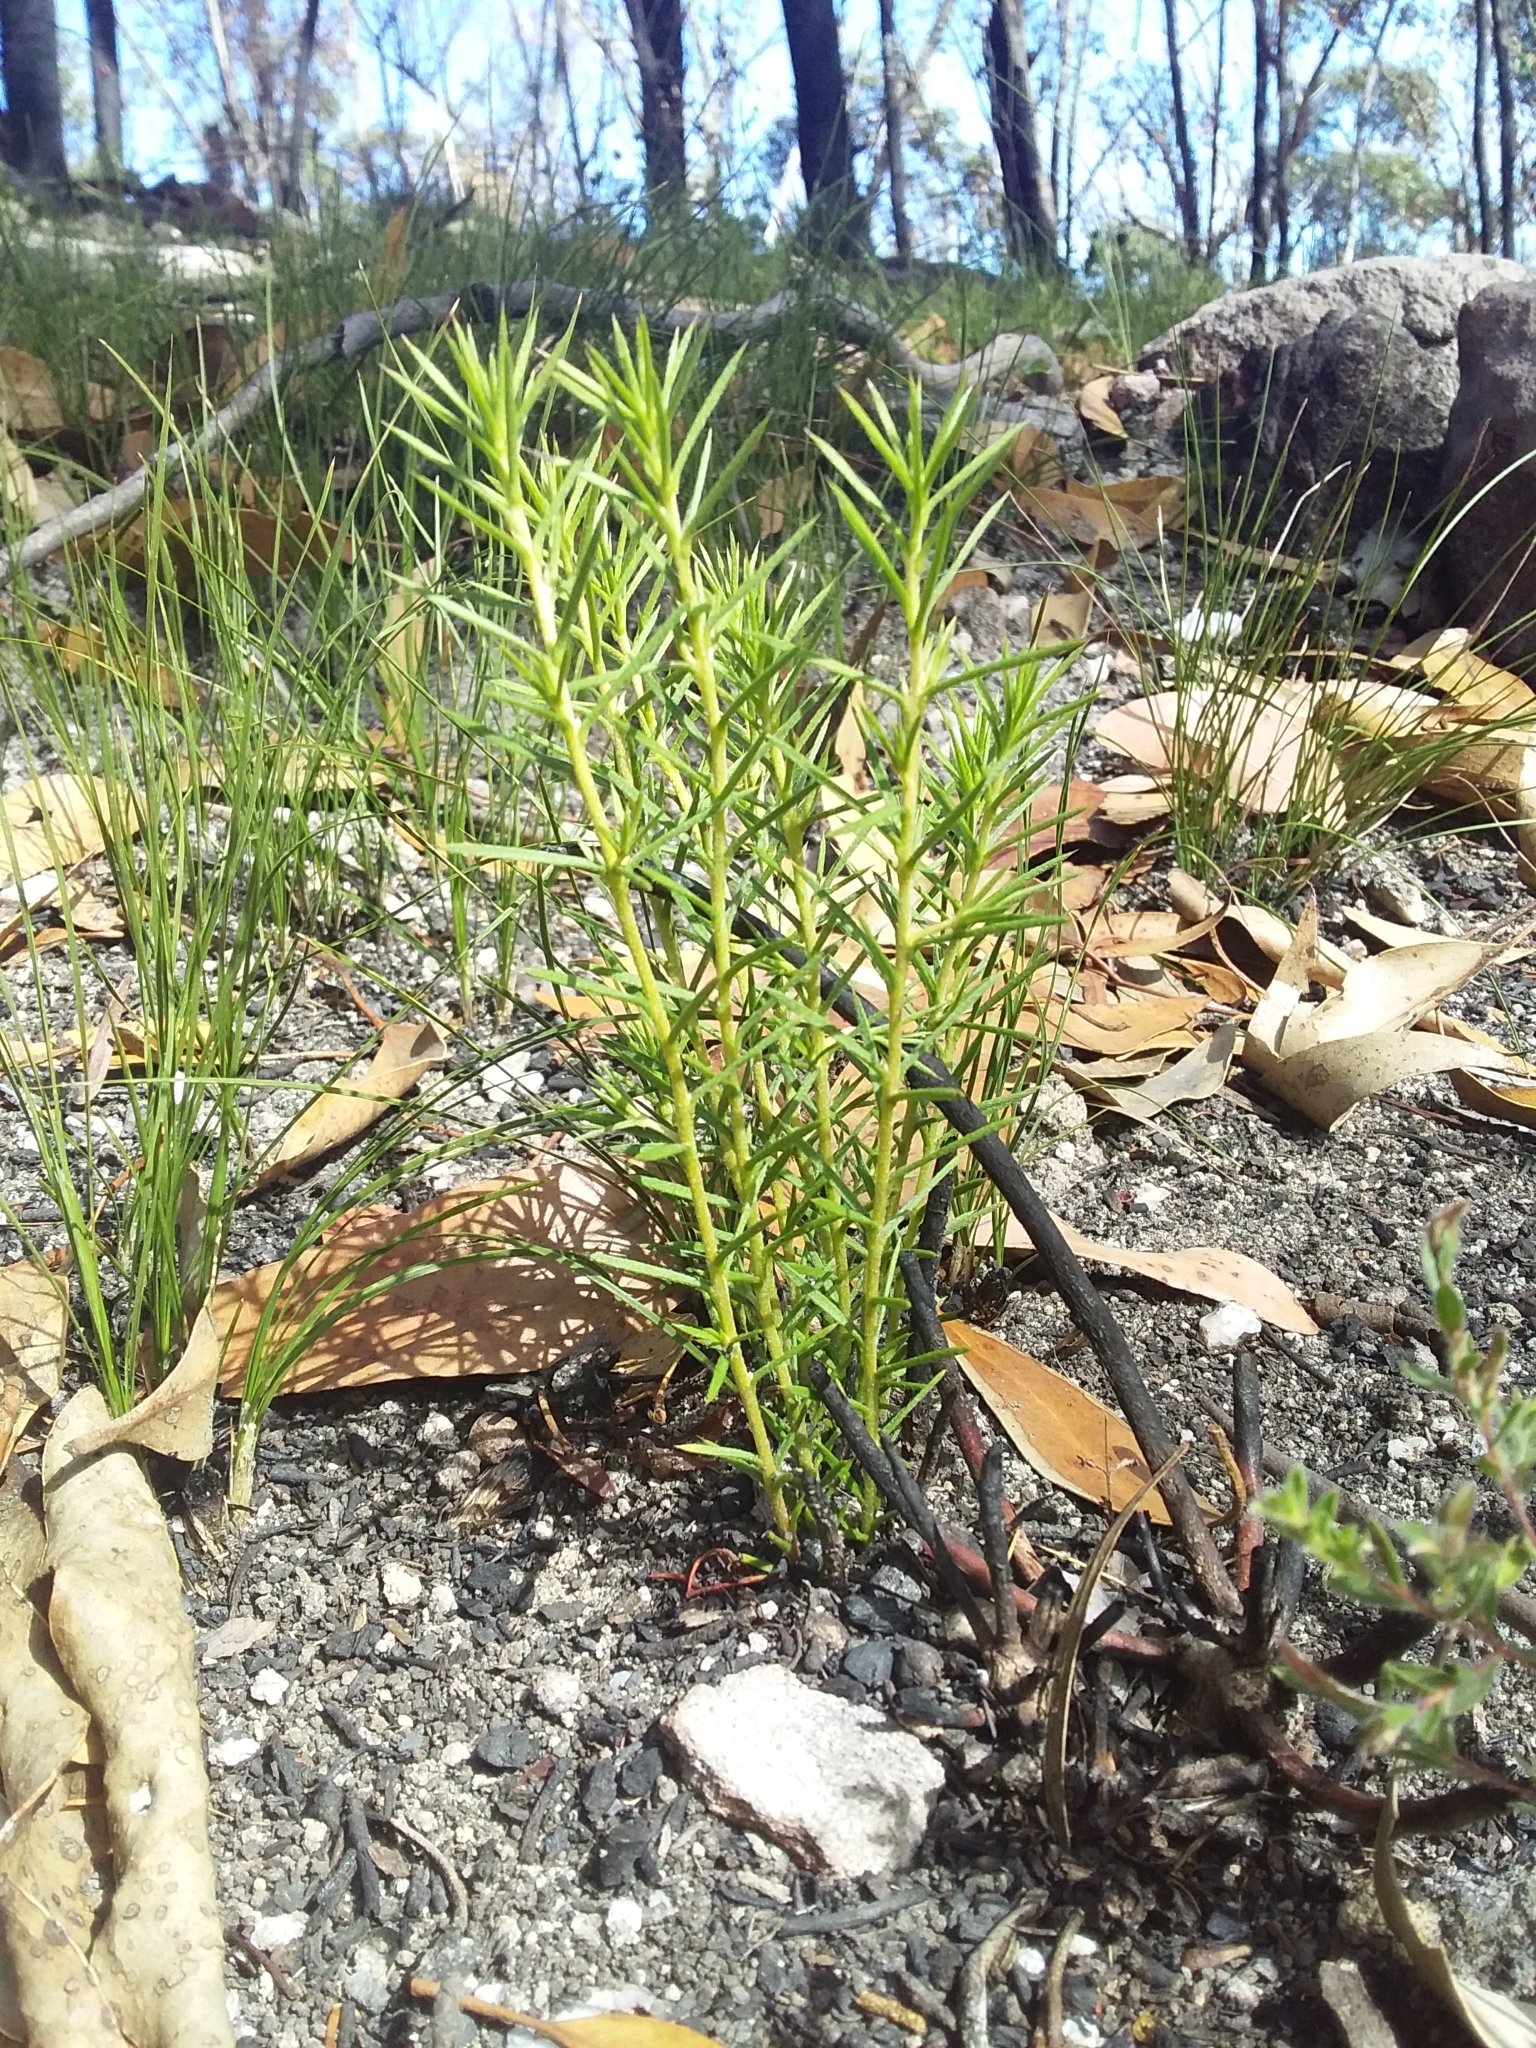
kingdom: Plantae
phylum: Tracheophyta
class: Magnoliopsida
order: Proteales
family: Proteaceae
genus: Persoonia
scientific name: Persoonia juniperina
